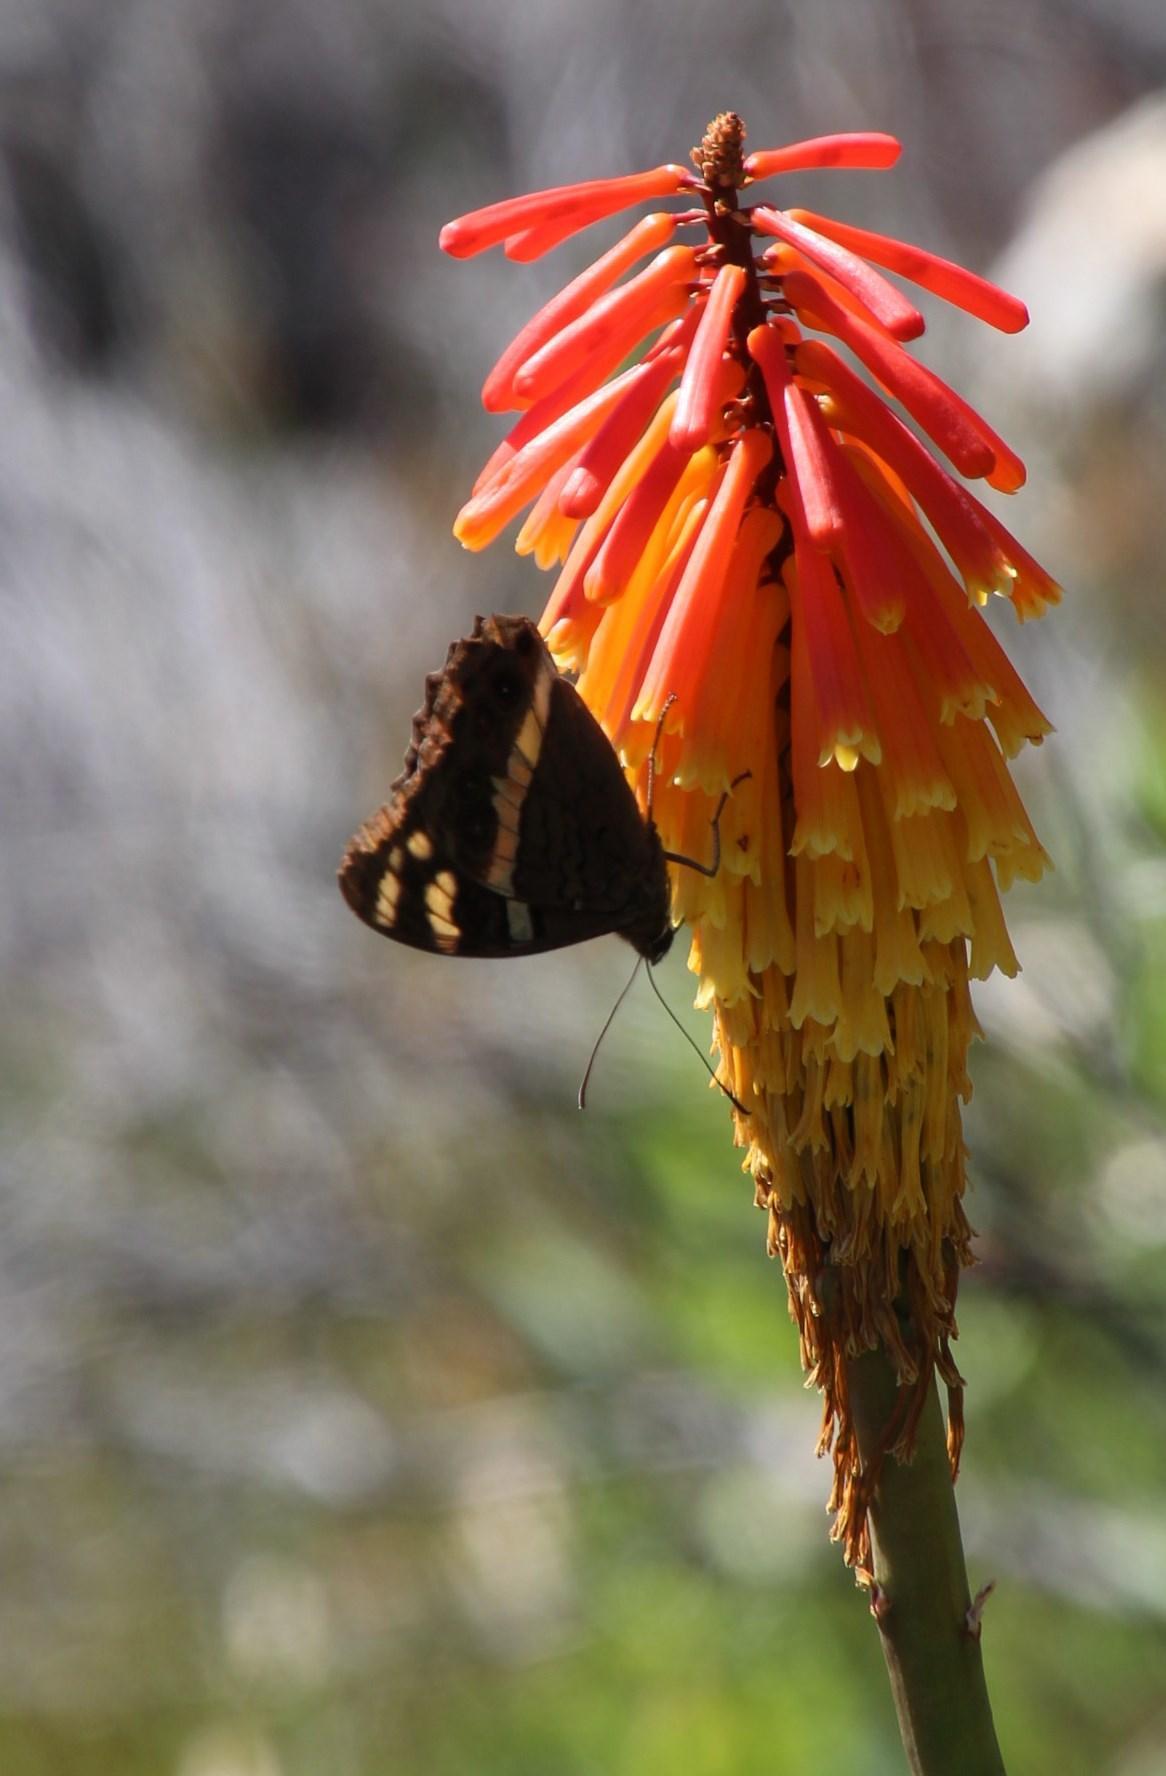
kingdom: Animalia
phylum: Arthropoda
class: Insecta
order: Lepidoptera
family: Nymphalidae
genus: Meneris
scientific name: Meneris Aeropetes tulbaghia
